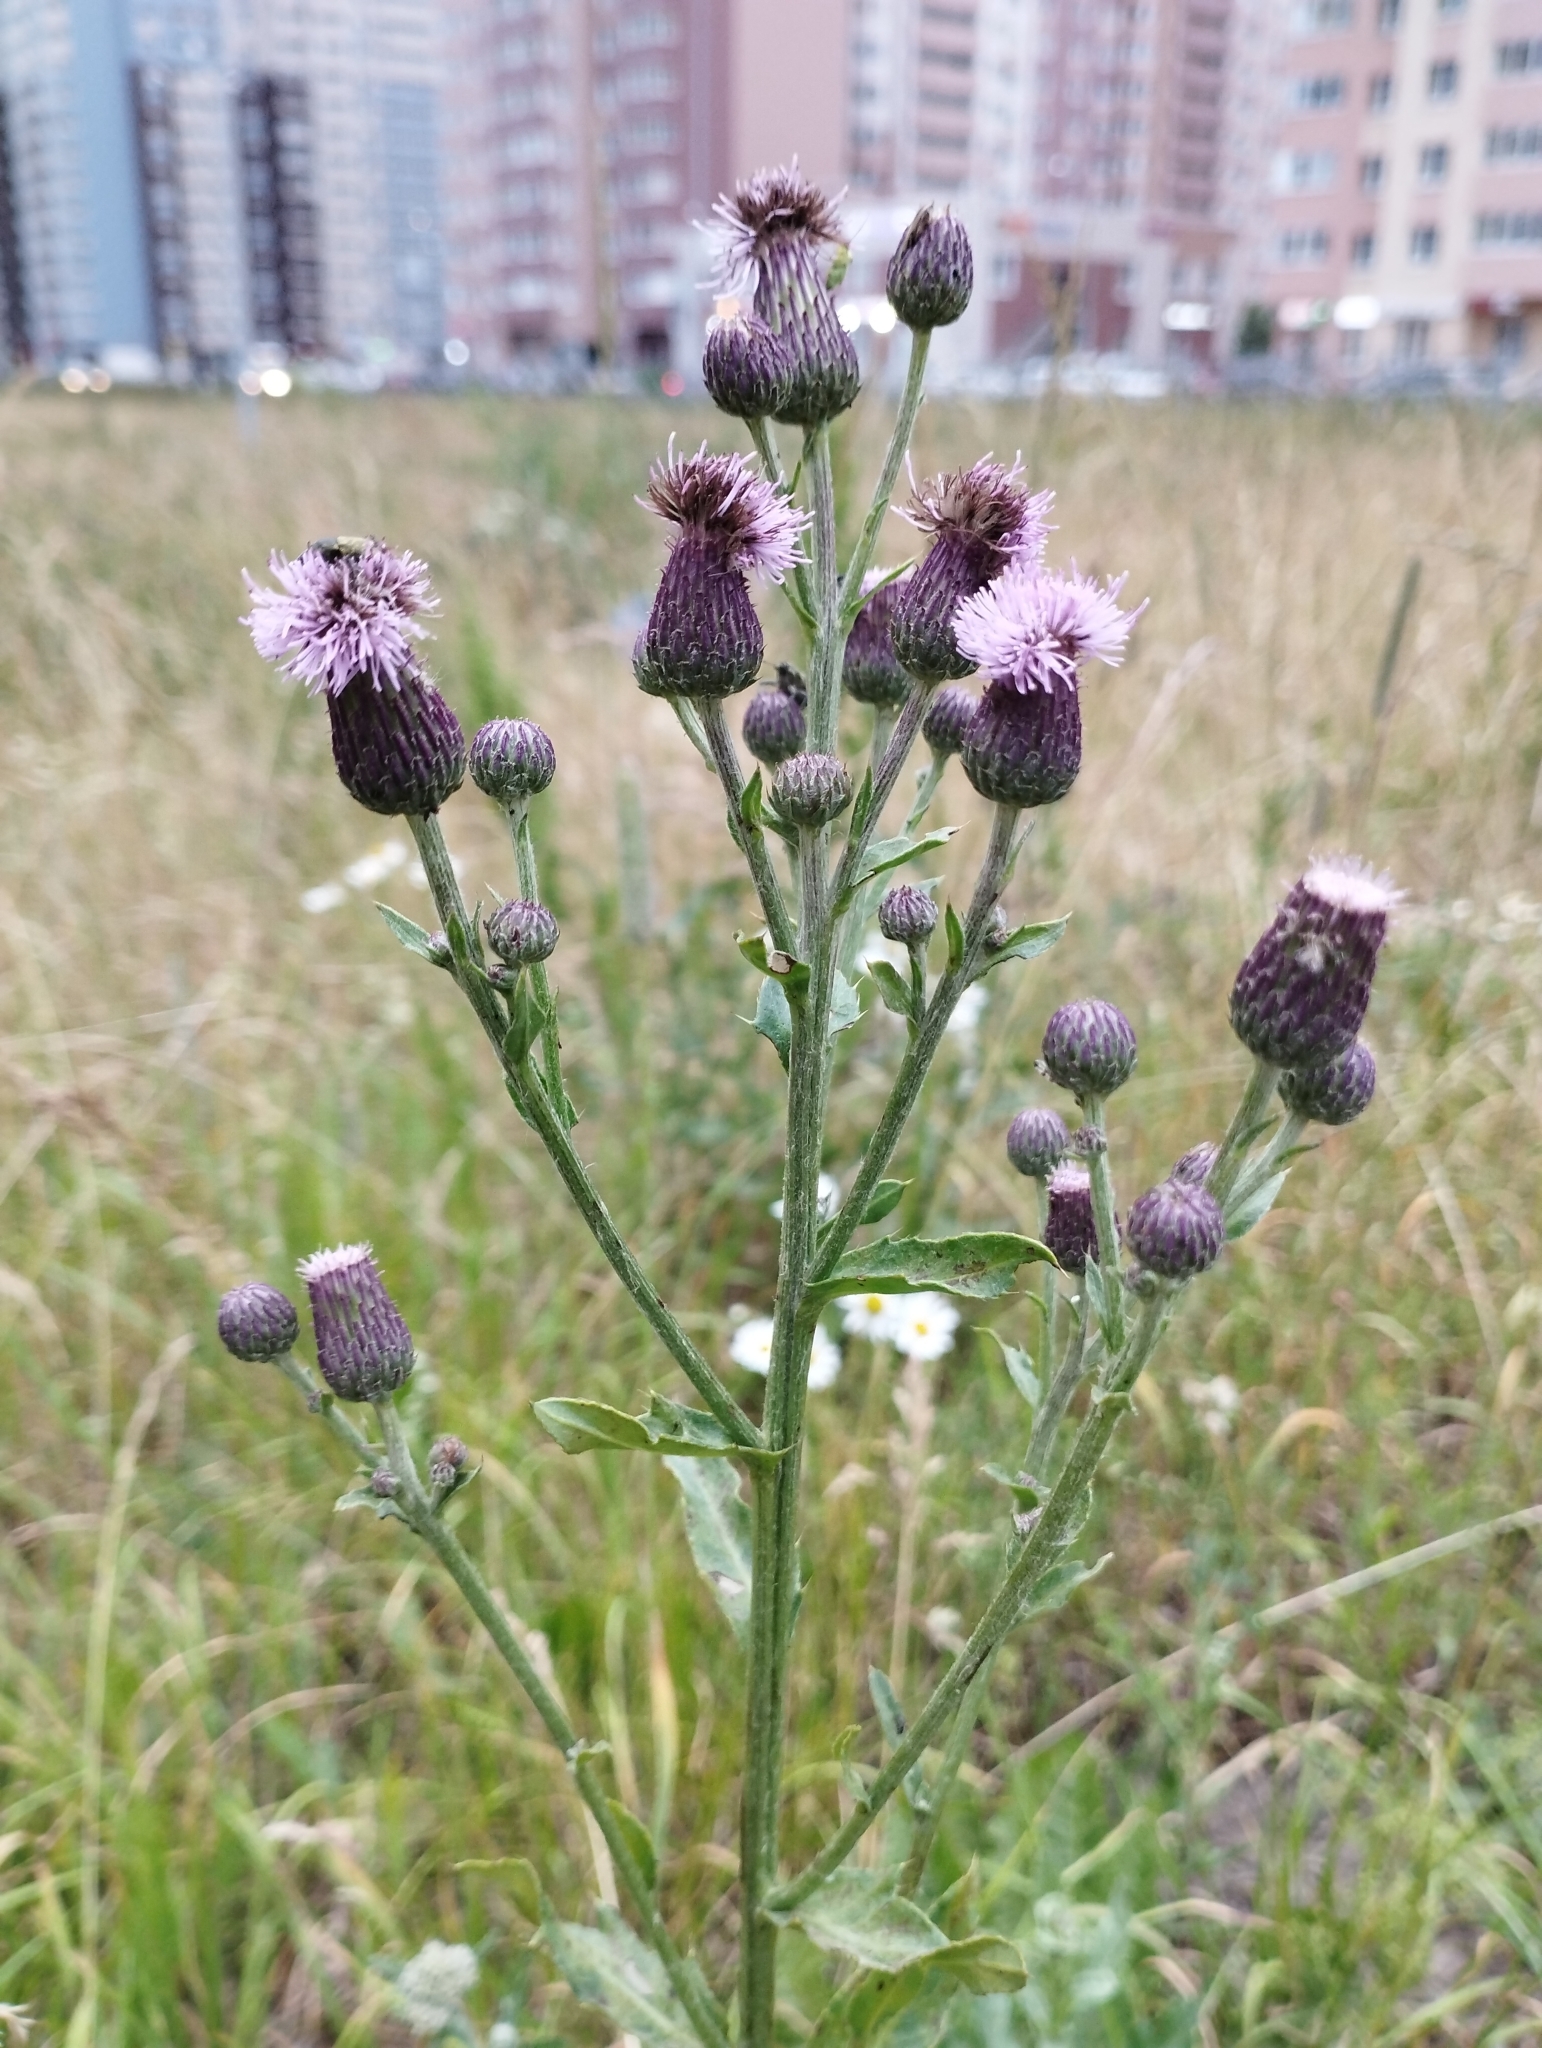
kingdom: Plantae
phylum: Tracheophyta
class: Magnoliopsida
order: Asterales
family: Asteraceae
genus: Cirsium
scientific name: Cirsium arvense
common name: Creeping thistle
